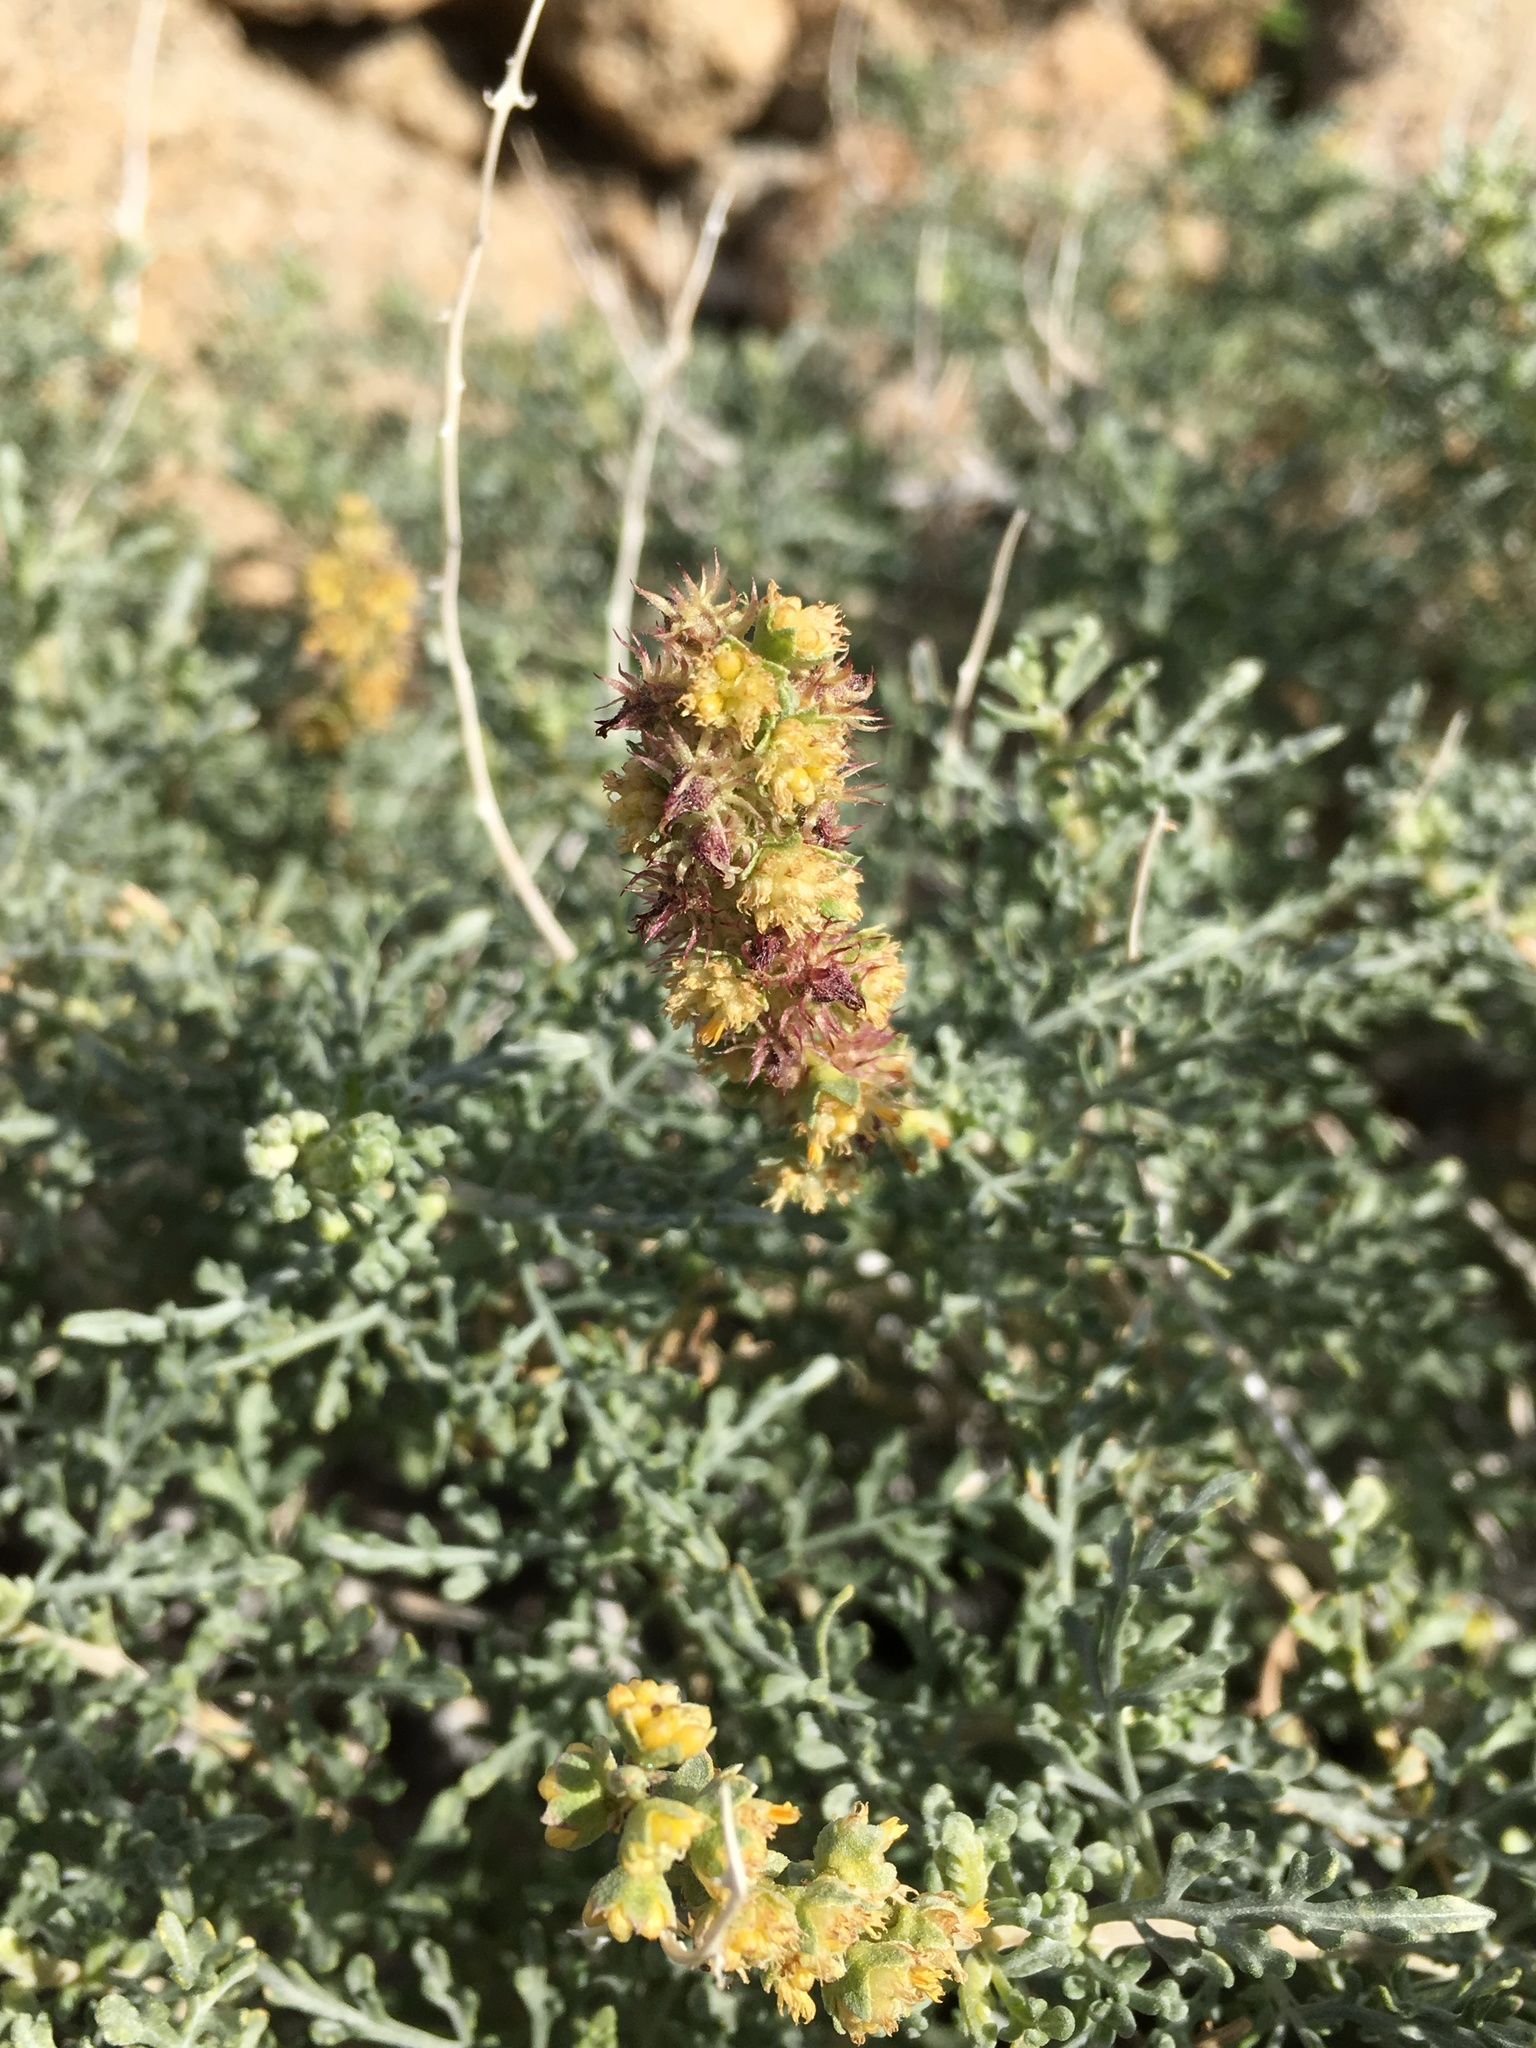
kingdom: Plantae
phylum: Tracheophyta
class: Magnoliopsida
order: Asterales
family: Asteraceae
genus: Ambrosia
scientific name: Ambrosia dumosa
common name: Bur-sage
